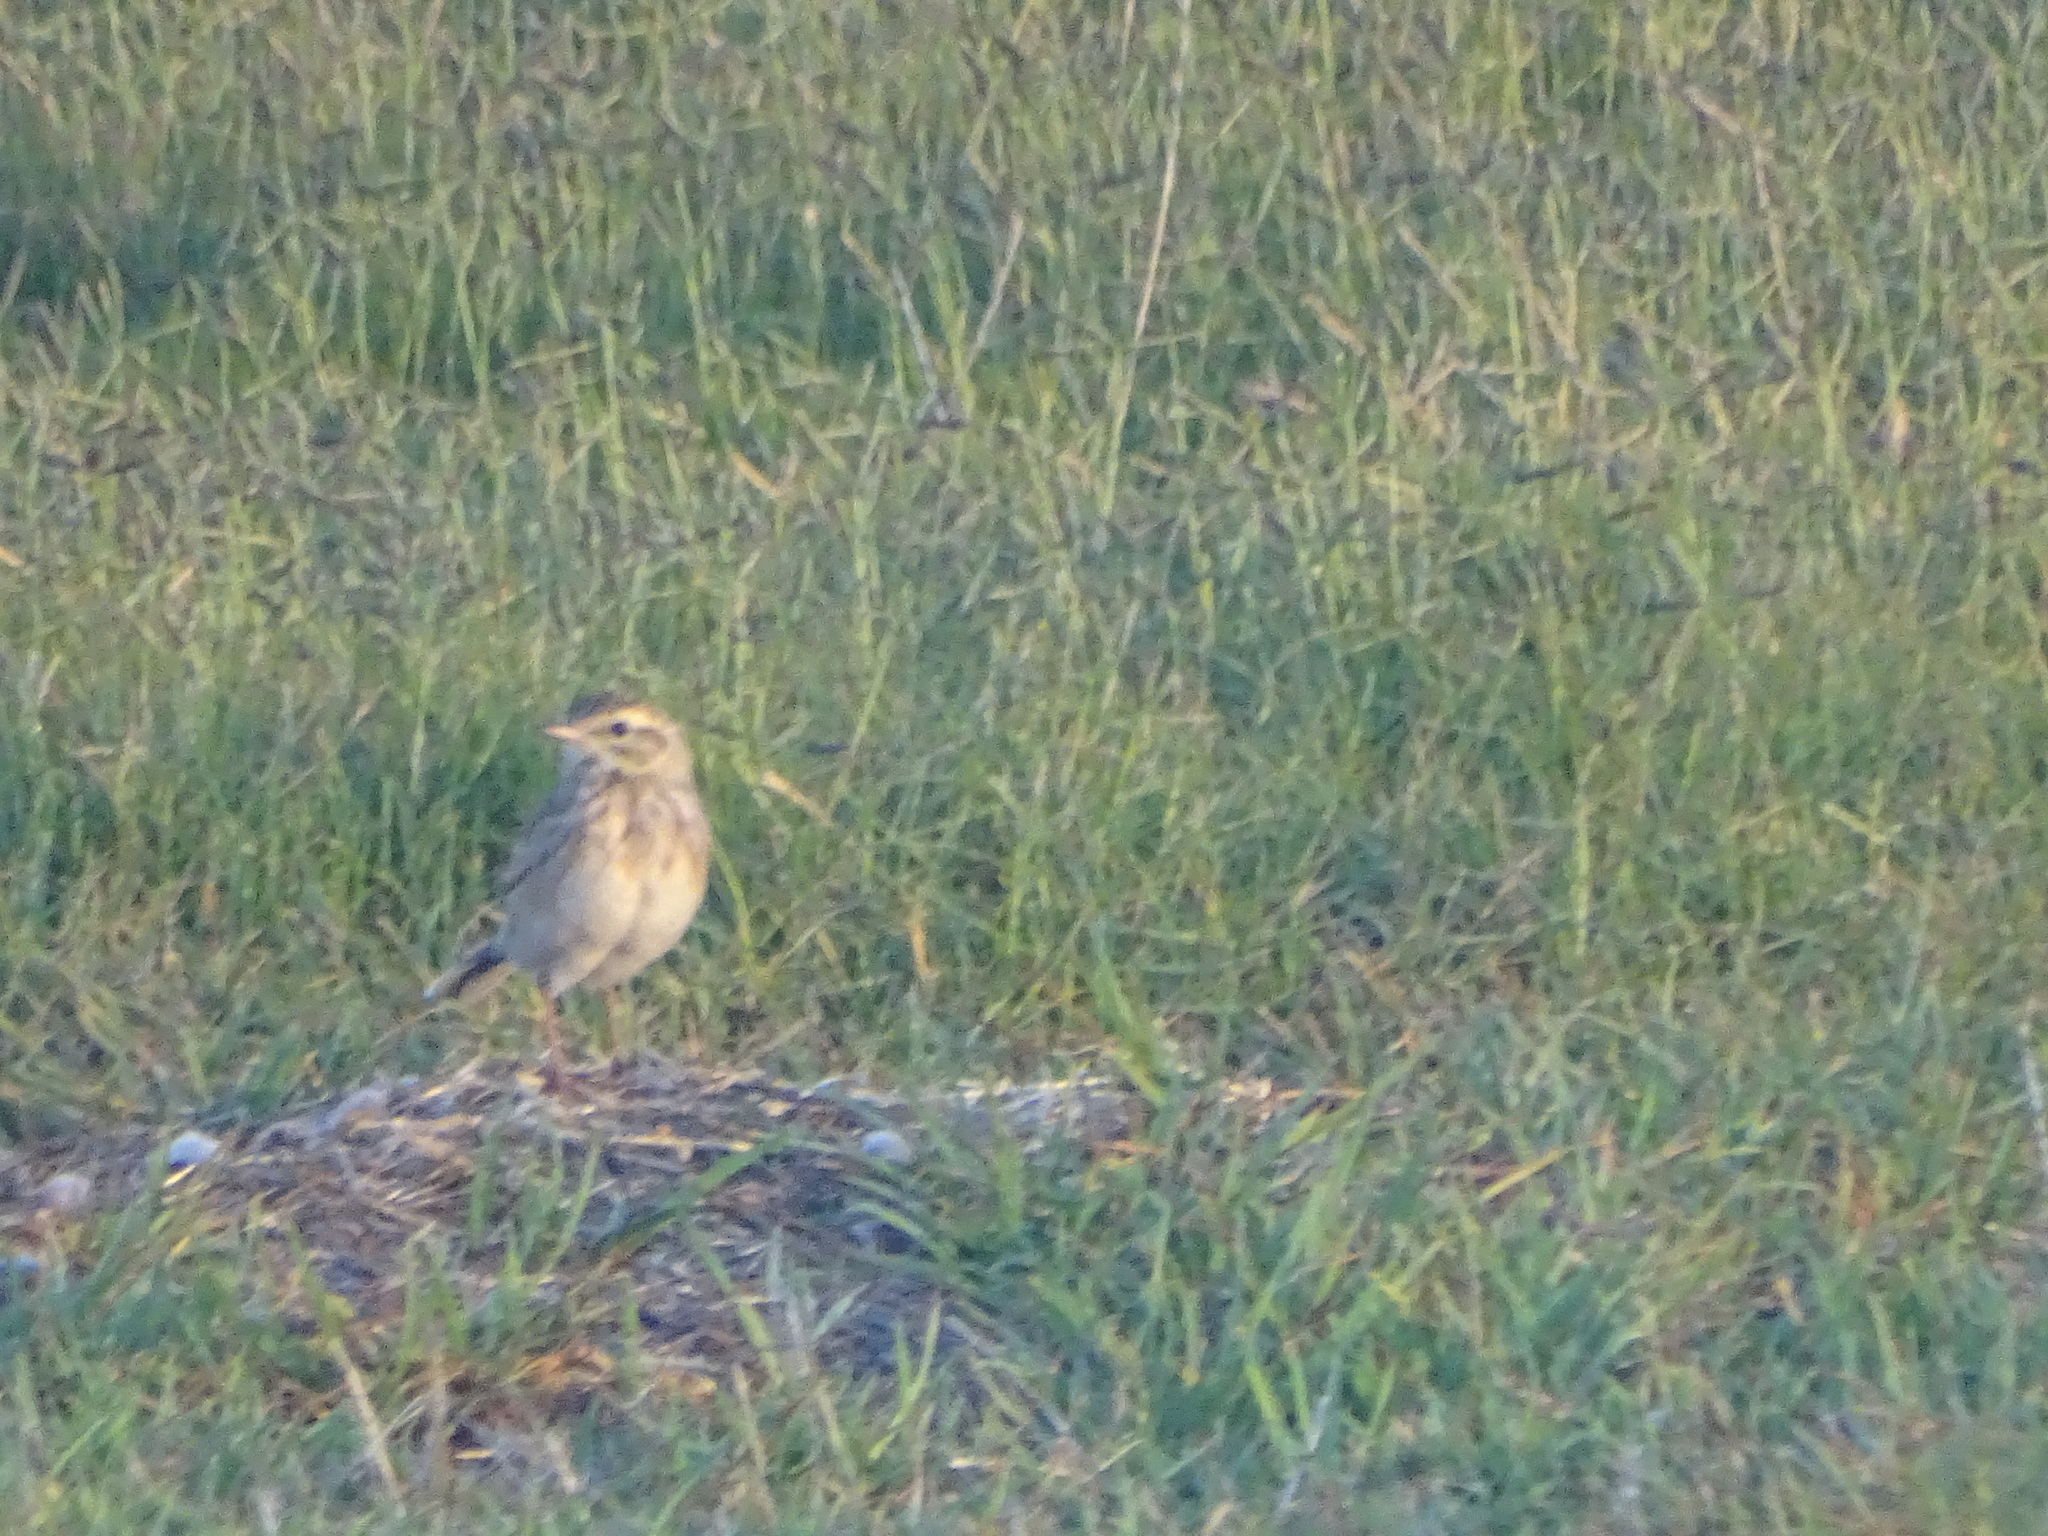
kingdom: Animalia
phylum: Chordata
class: Aves
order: Passeriformes
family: Motacillidae
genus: Anthus
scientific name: Anthus australis
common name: Australian pipit
